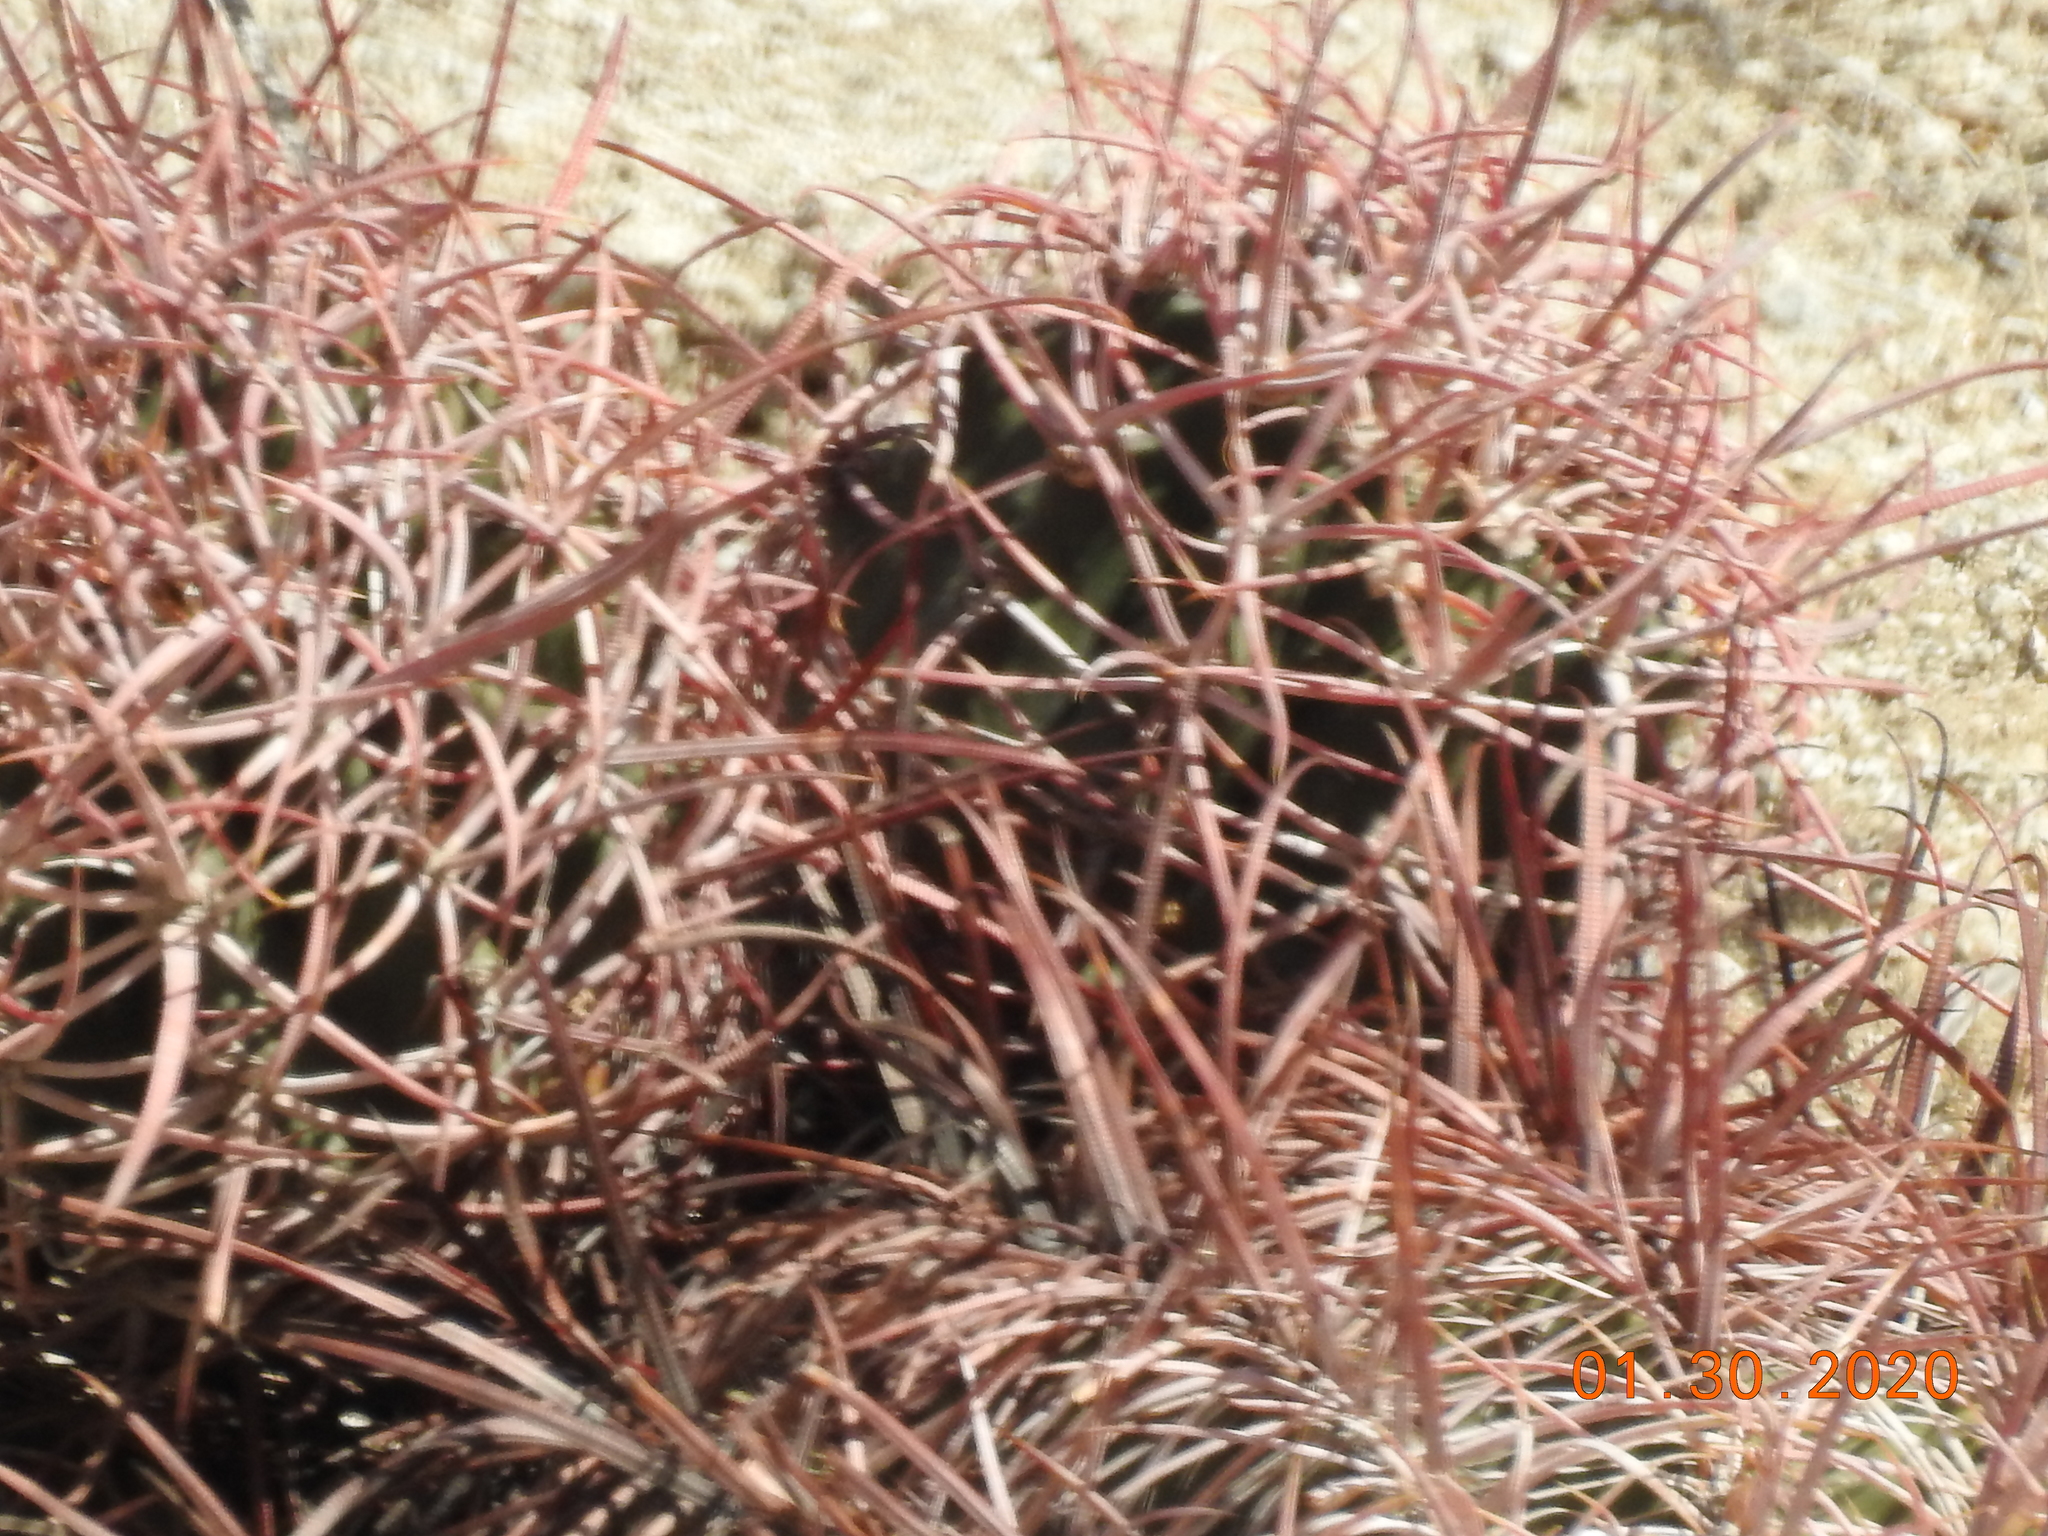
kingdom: Plantae
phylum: Tracheophyta
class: Magnoliopsida
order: Caryophyllales
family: Cactaceae
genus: Ferocactus
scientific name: Ferocactus cylindraceus
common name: California barrel cactus
